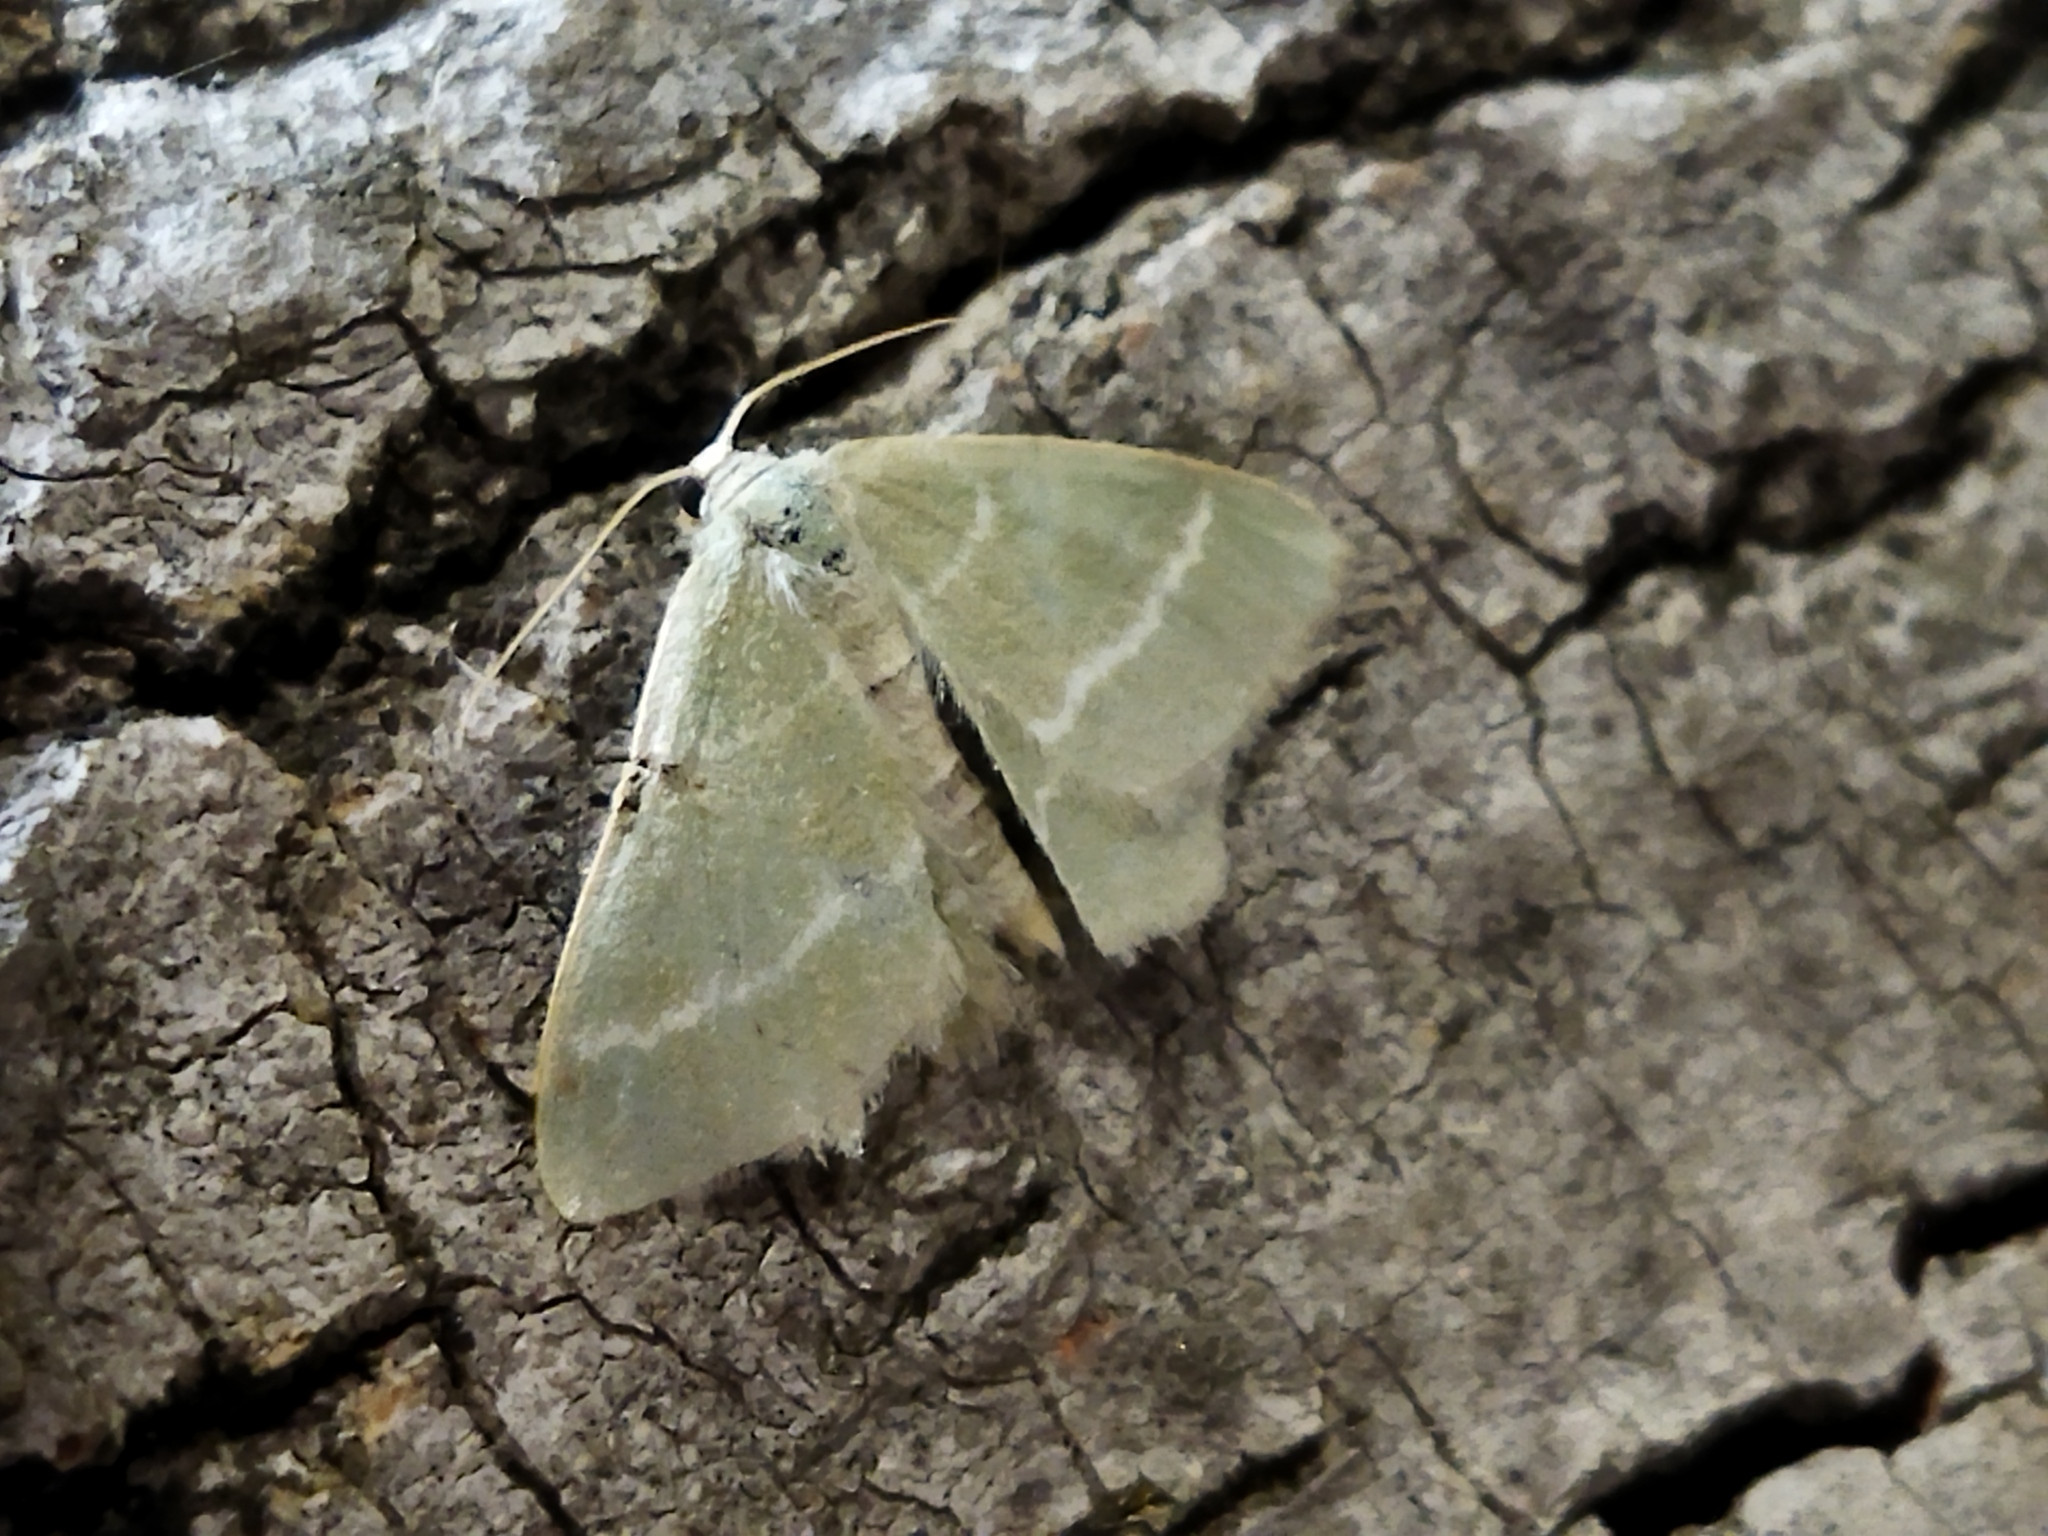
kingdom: Animalia
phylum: Arthropoda
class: Insecta
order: Lepidoptera
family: Geometridae
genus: Chlorissa
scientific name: Chlorissa cloraria
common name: Southern grass emerald
